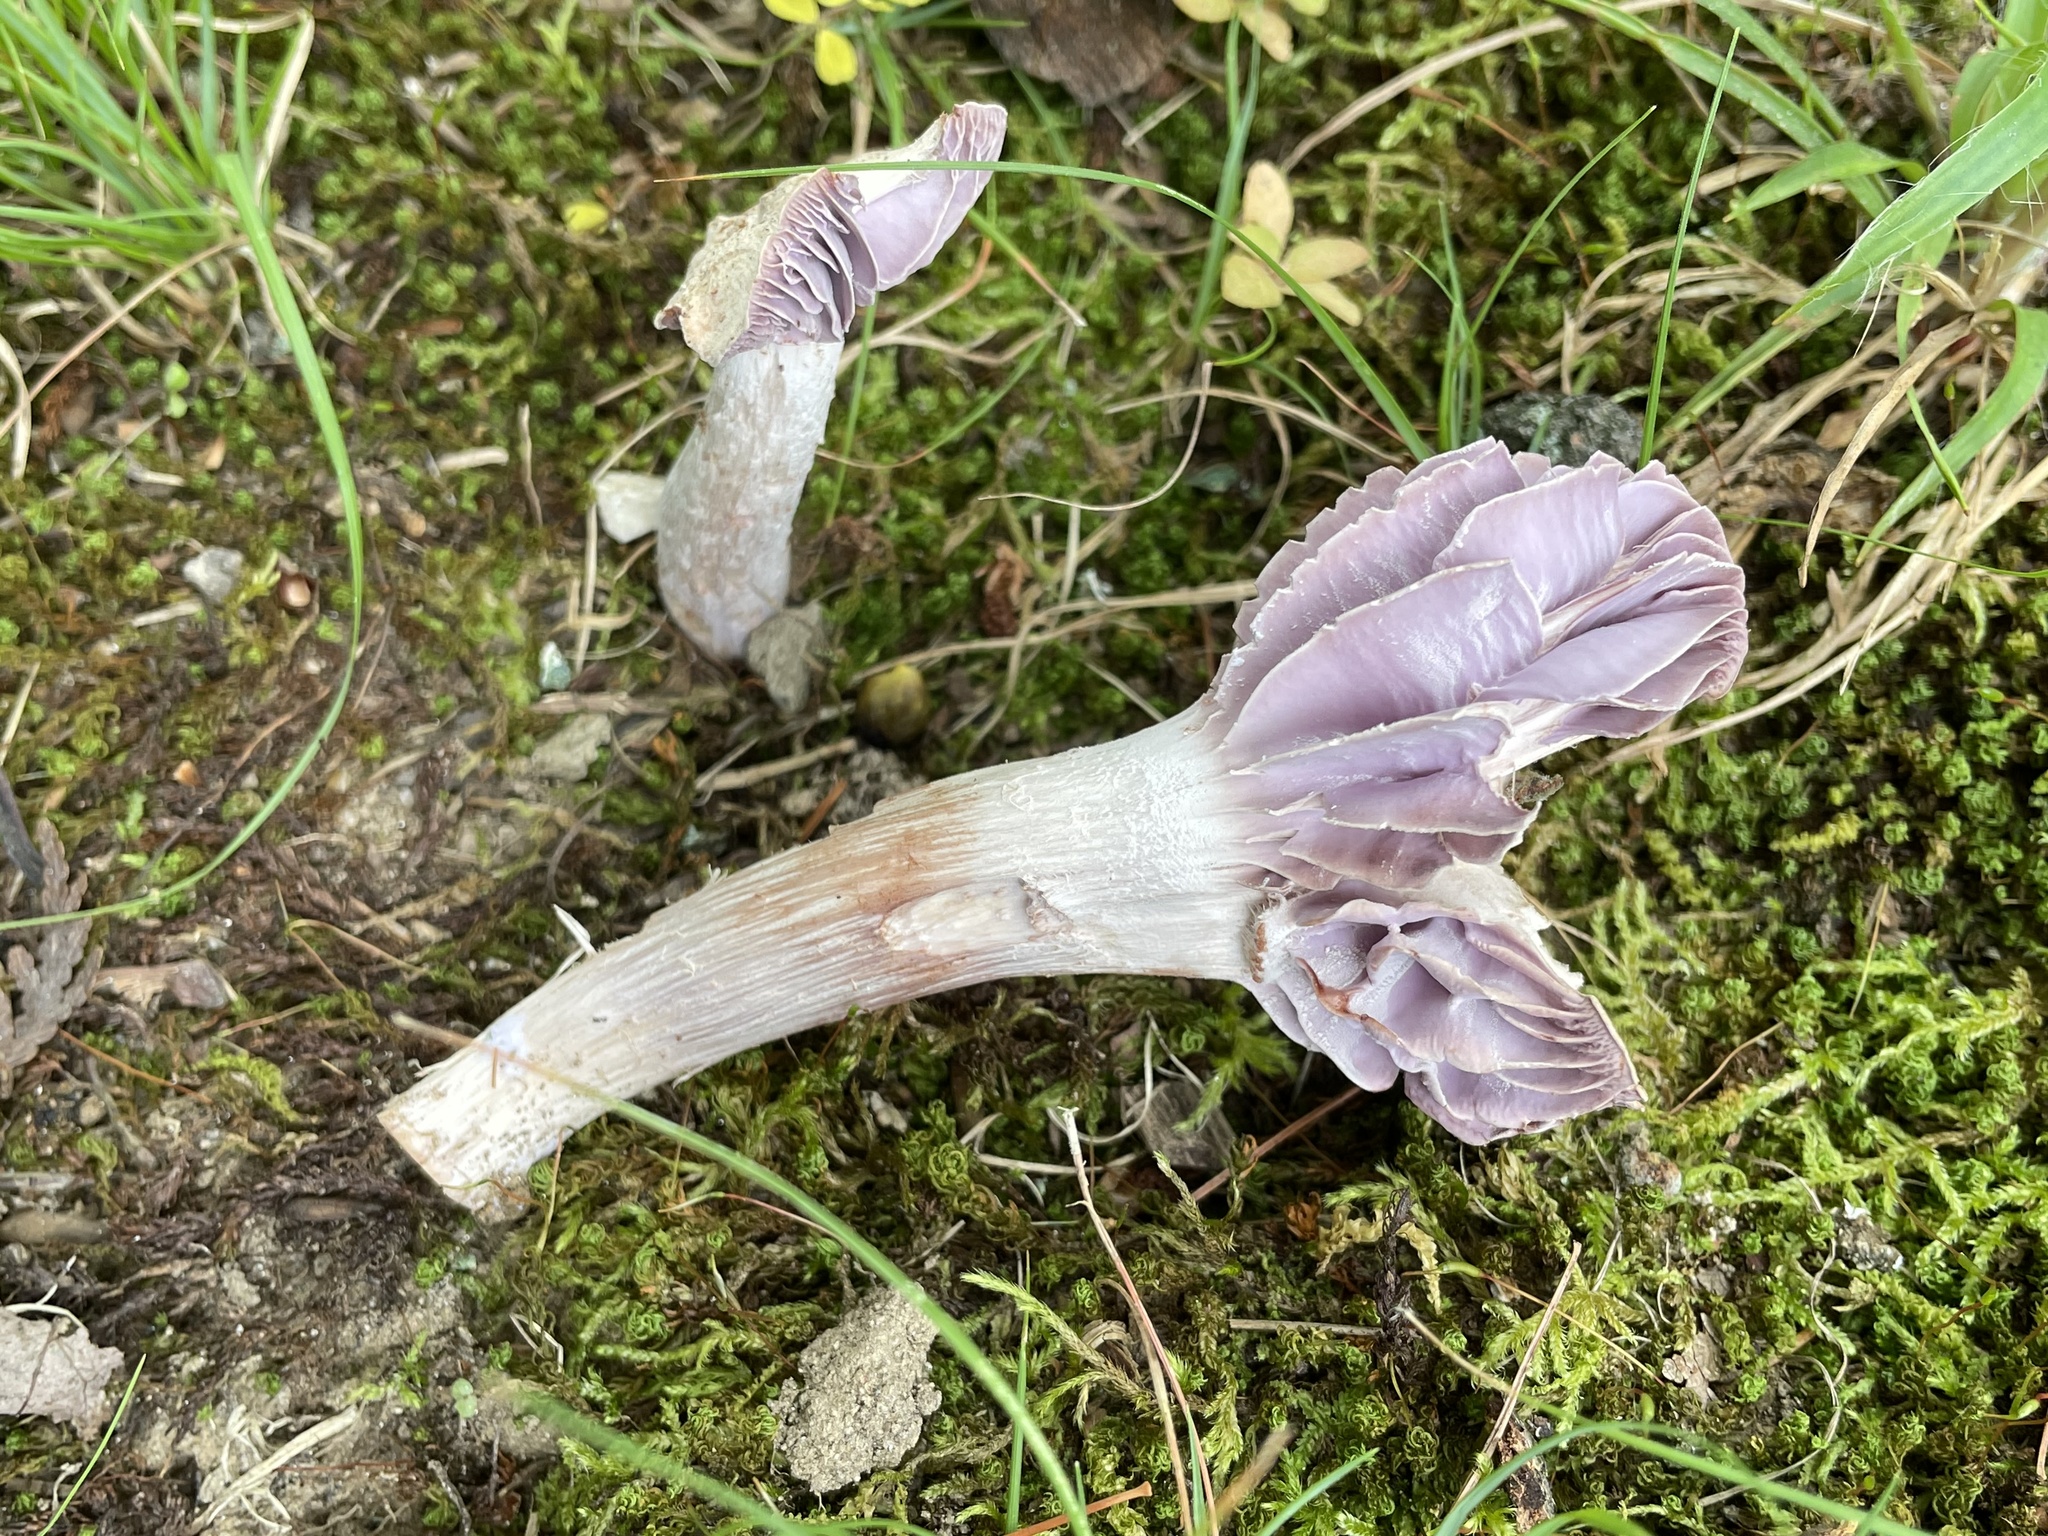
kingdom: Fungi
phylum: Basidiomycota
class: Agaricomycetes
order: Agaricales
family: Hydnangiaceae
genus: Laccaria
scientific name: Laccaria ochropurpurea
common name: Purple laccaria
